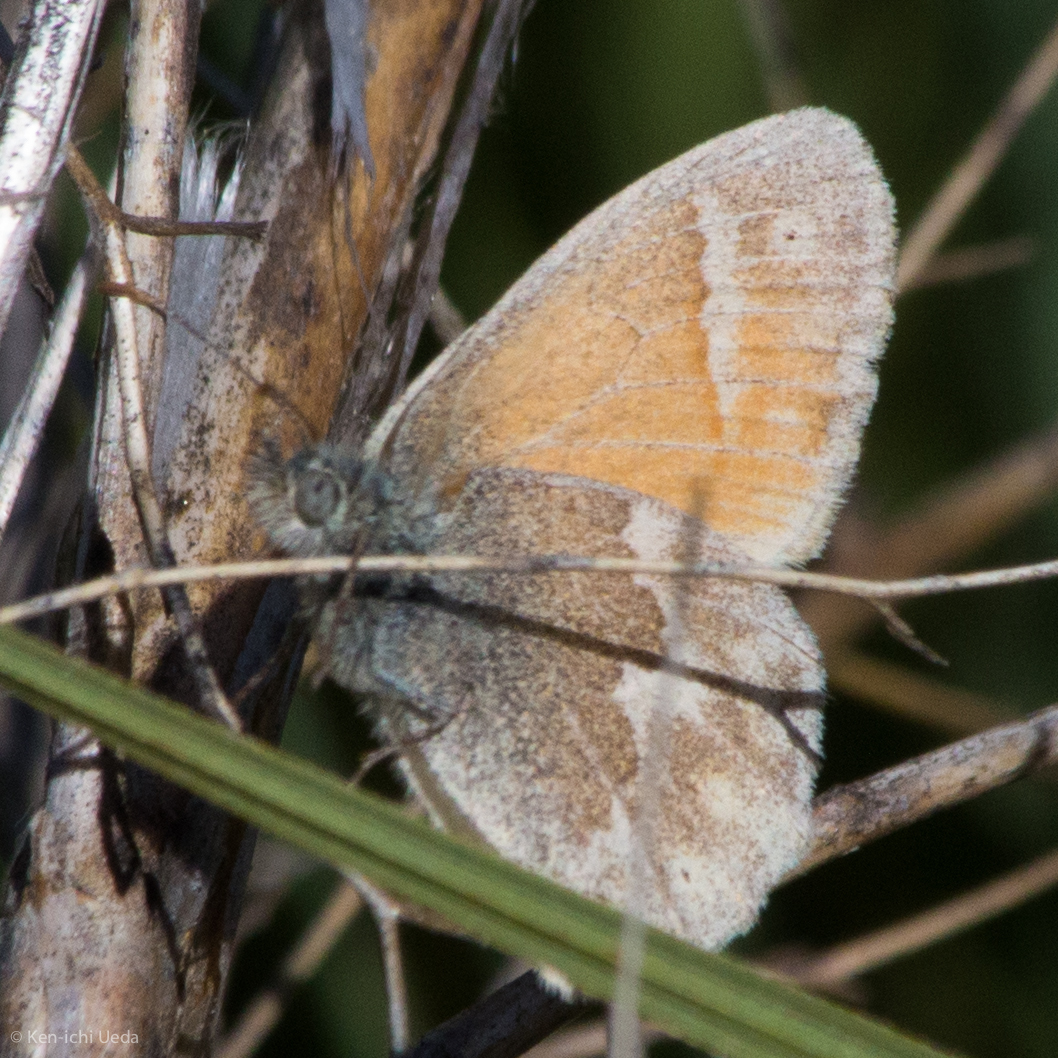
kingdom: Animalia
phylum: Arthropoda
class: Insecta
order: Lepidoptera
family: Nymphalidae
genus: Coenonympha
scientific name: Coenonympha california
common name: Common ringlet
